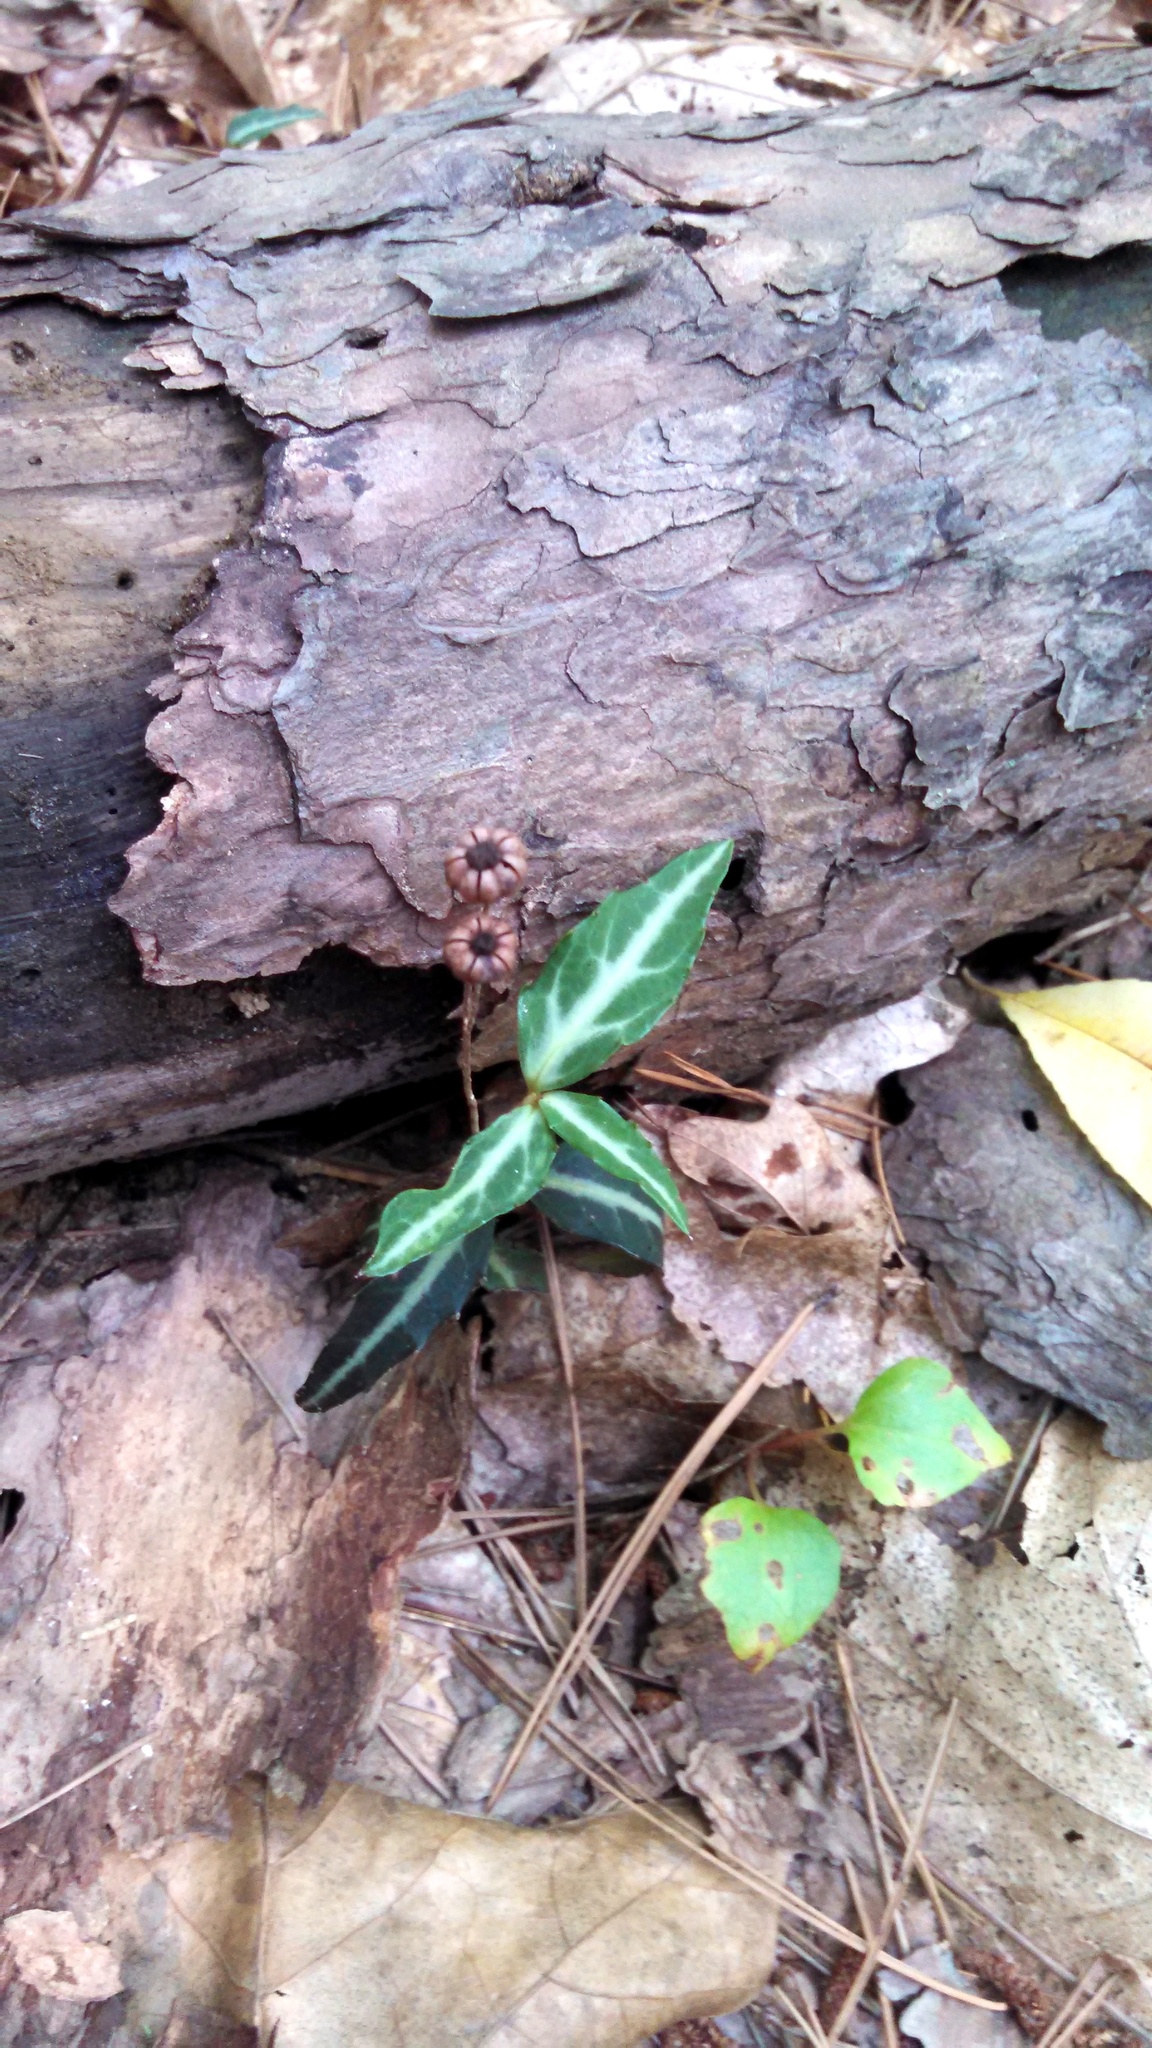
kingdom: Plantae
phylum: Tracheophyta
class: Magnoliopsida
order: Ericales
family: Ericaceae
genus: Chimaphila
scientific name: Chimaphila maculata
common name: Spotted pipsissewa
